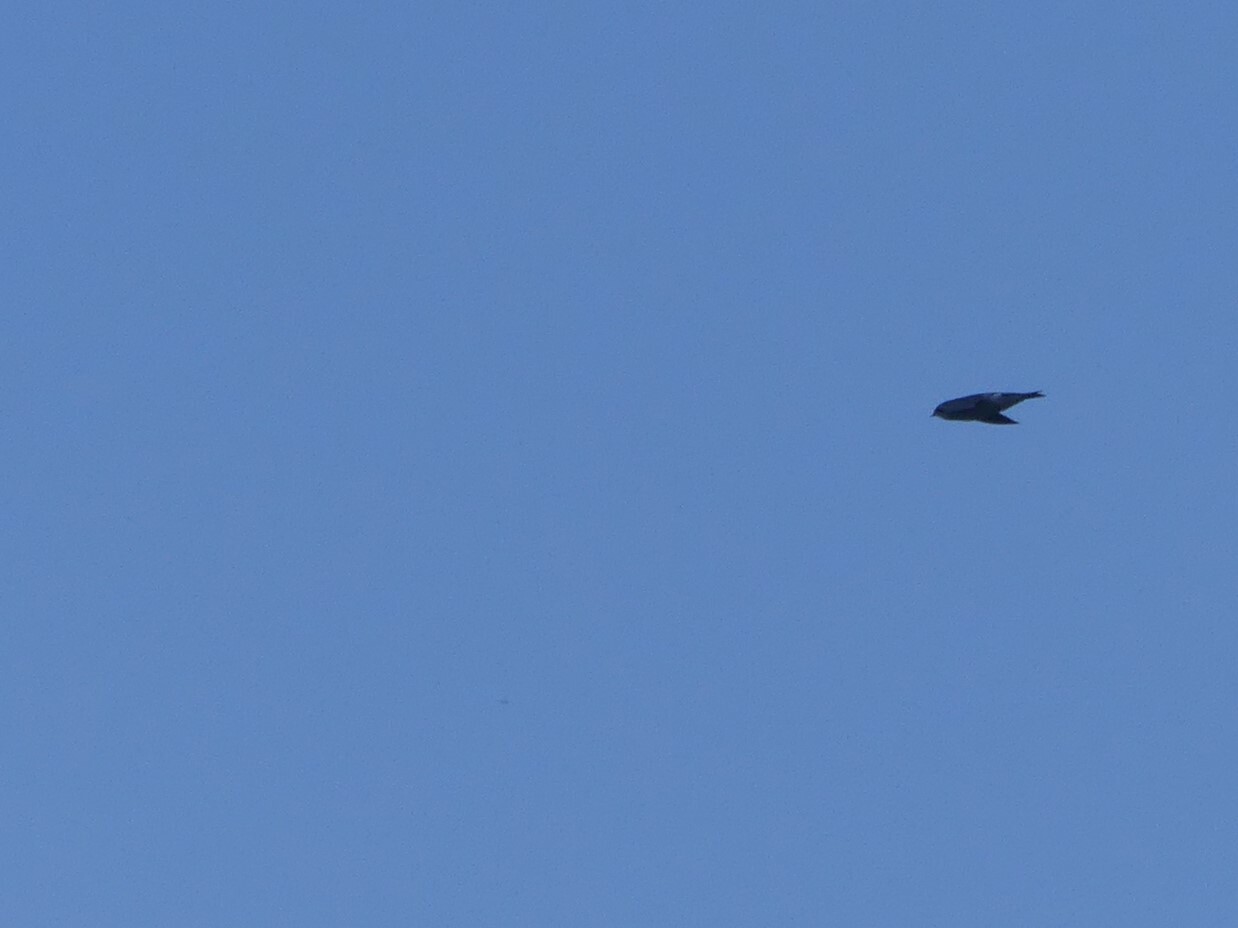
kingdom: Animalia
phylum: Chordata
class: Aves
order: Passeriformes
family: Hirundinidae
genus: Tachycineta
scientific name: Tachycineta thalassina
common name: Violet-green swallow
